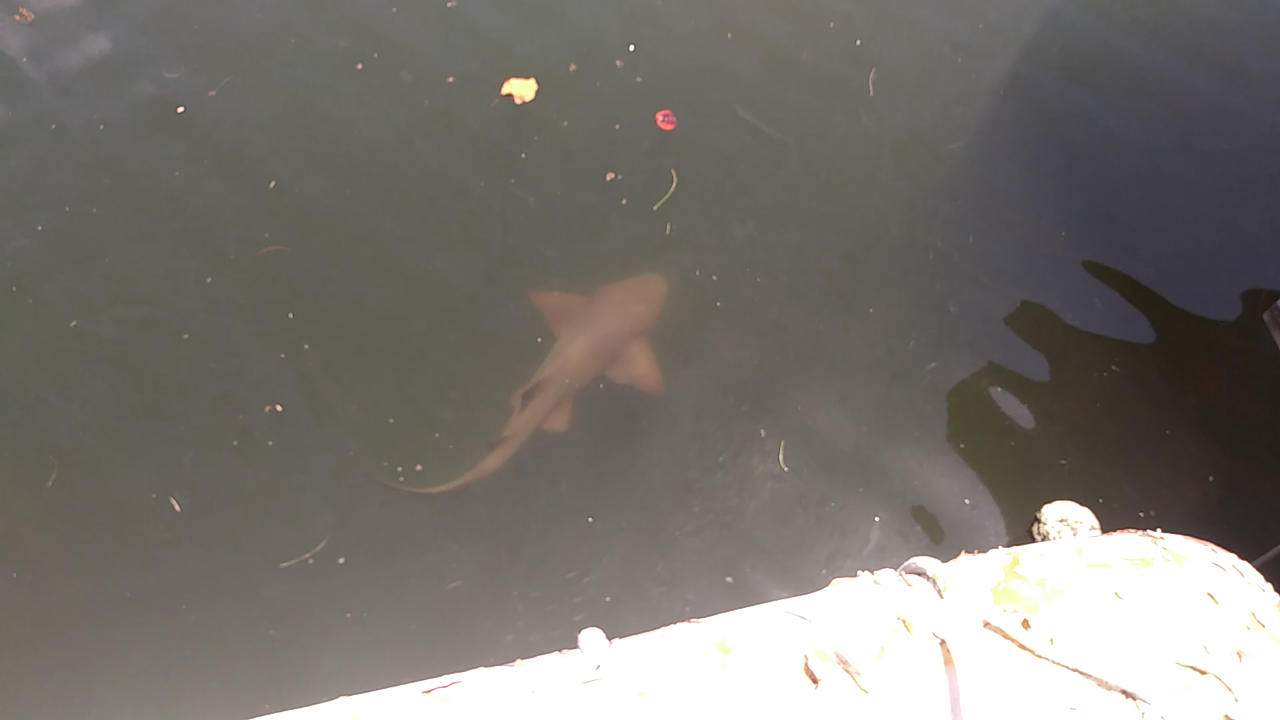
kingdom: Animalia
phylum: Chordata
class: Elasmobranchii
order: Orectolobiformes
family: Ginglymostomatidae
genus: Ginglymostoma
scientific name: Ginglymostoma cirratum
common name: Nurse shark
